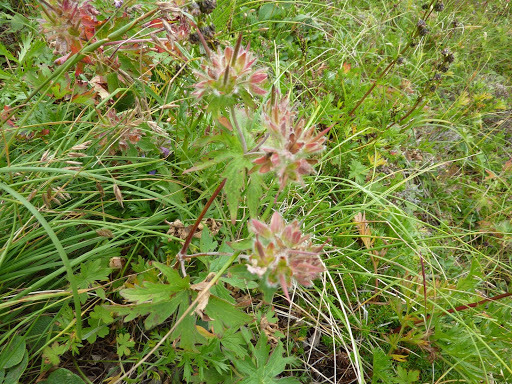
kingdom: Plantae
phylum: Tracheophyta
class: Magnoliopsida
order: Geraniales
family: Geraniaceae
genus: Geranium
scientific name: Geranium erianthum
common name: Northern crane's-bill
